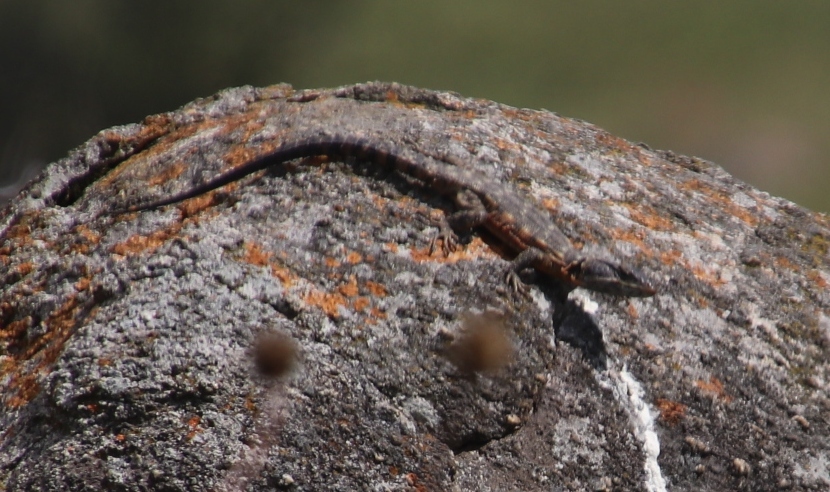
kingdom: Animalia
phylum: Chordata
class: Squamata
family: Cordylidae
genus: Pseudocordylus
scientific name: Pseudocordylus melanotus
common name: Highveld crag lizard
